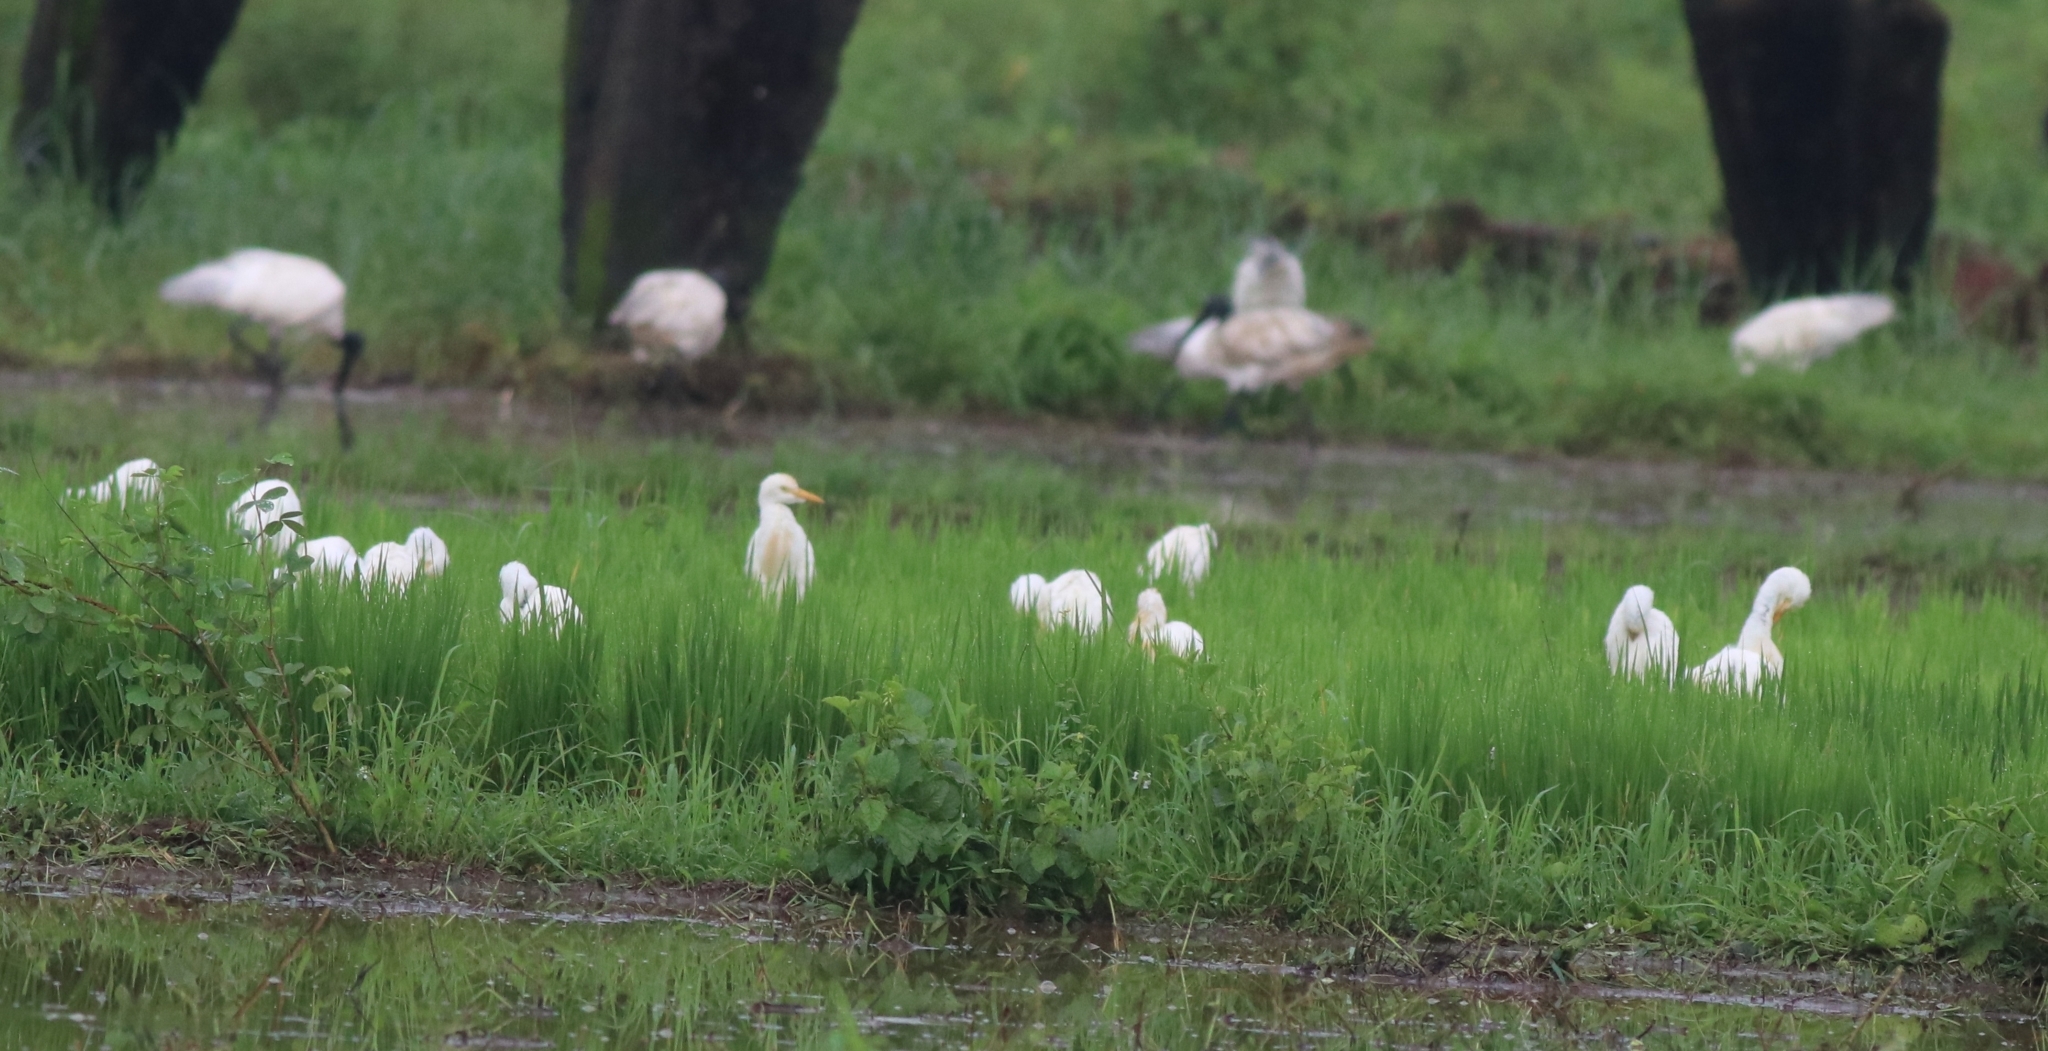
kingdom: Animalia
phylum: Chordata
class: Aves
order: Pelecaniformes
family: Ardeidae
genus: Bubulcus
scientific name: Bubulcus coromandus
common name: Eastern cattle egret
